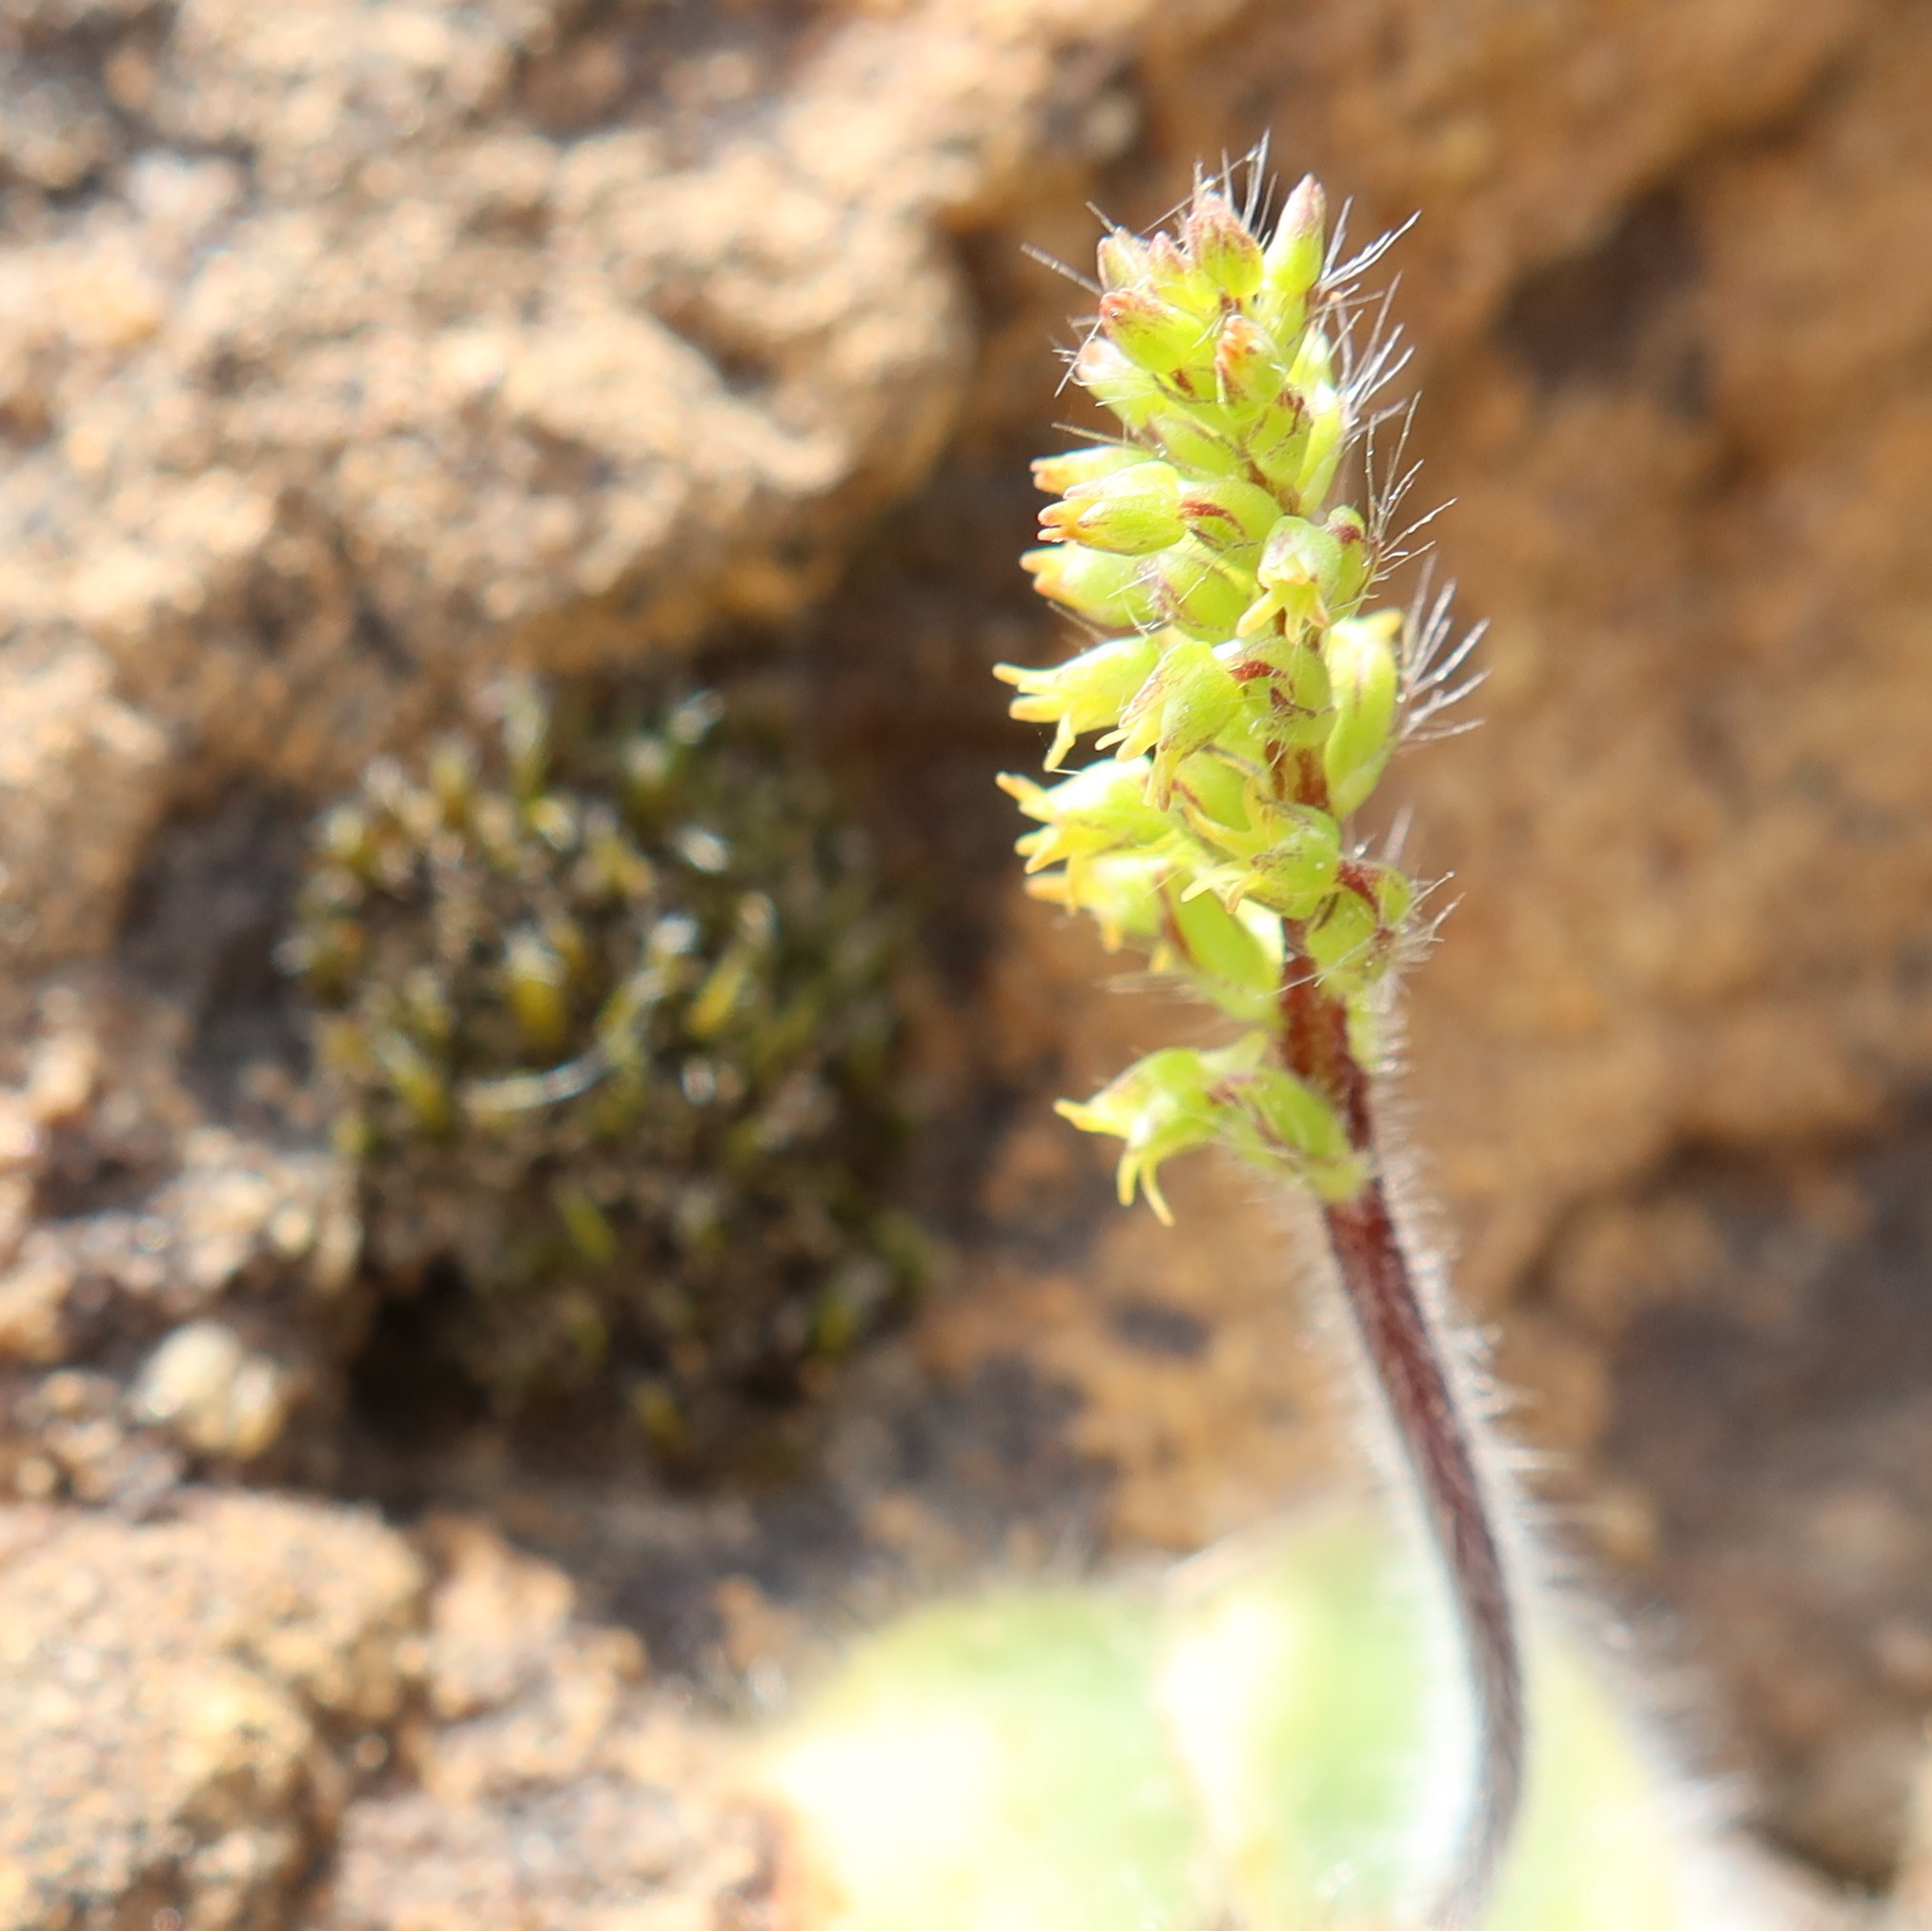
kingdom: Plantae
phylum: Tracheophyta
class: Liliopsida
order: Asparagales
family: Orchidaceae
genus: Holothrix
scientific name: Holothrix condensata
